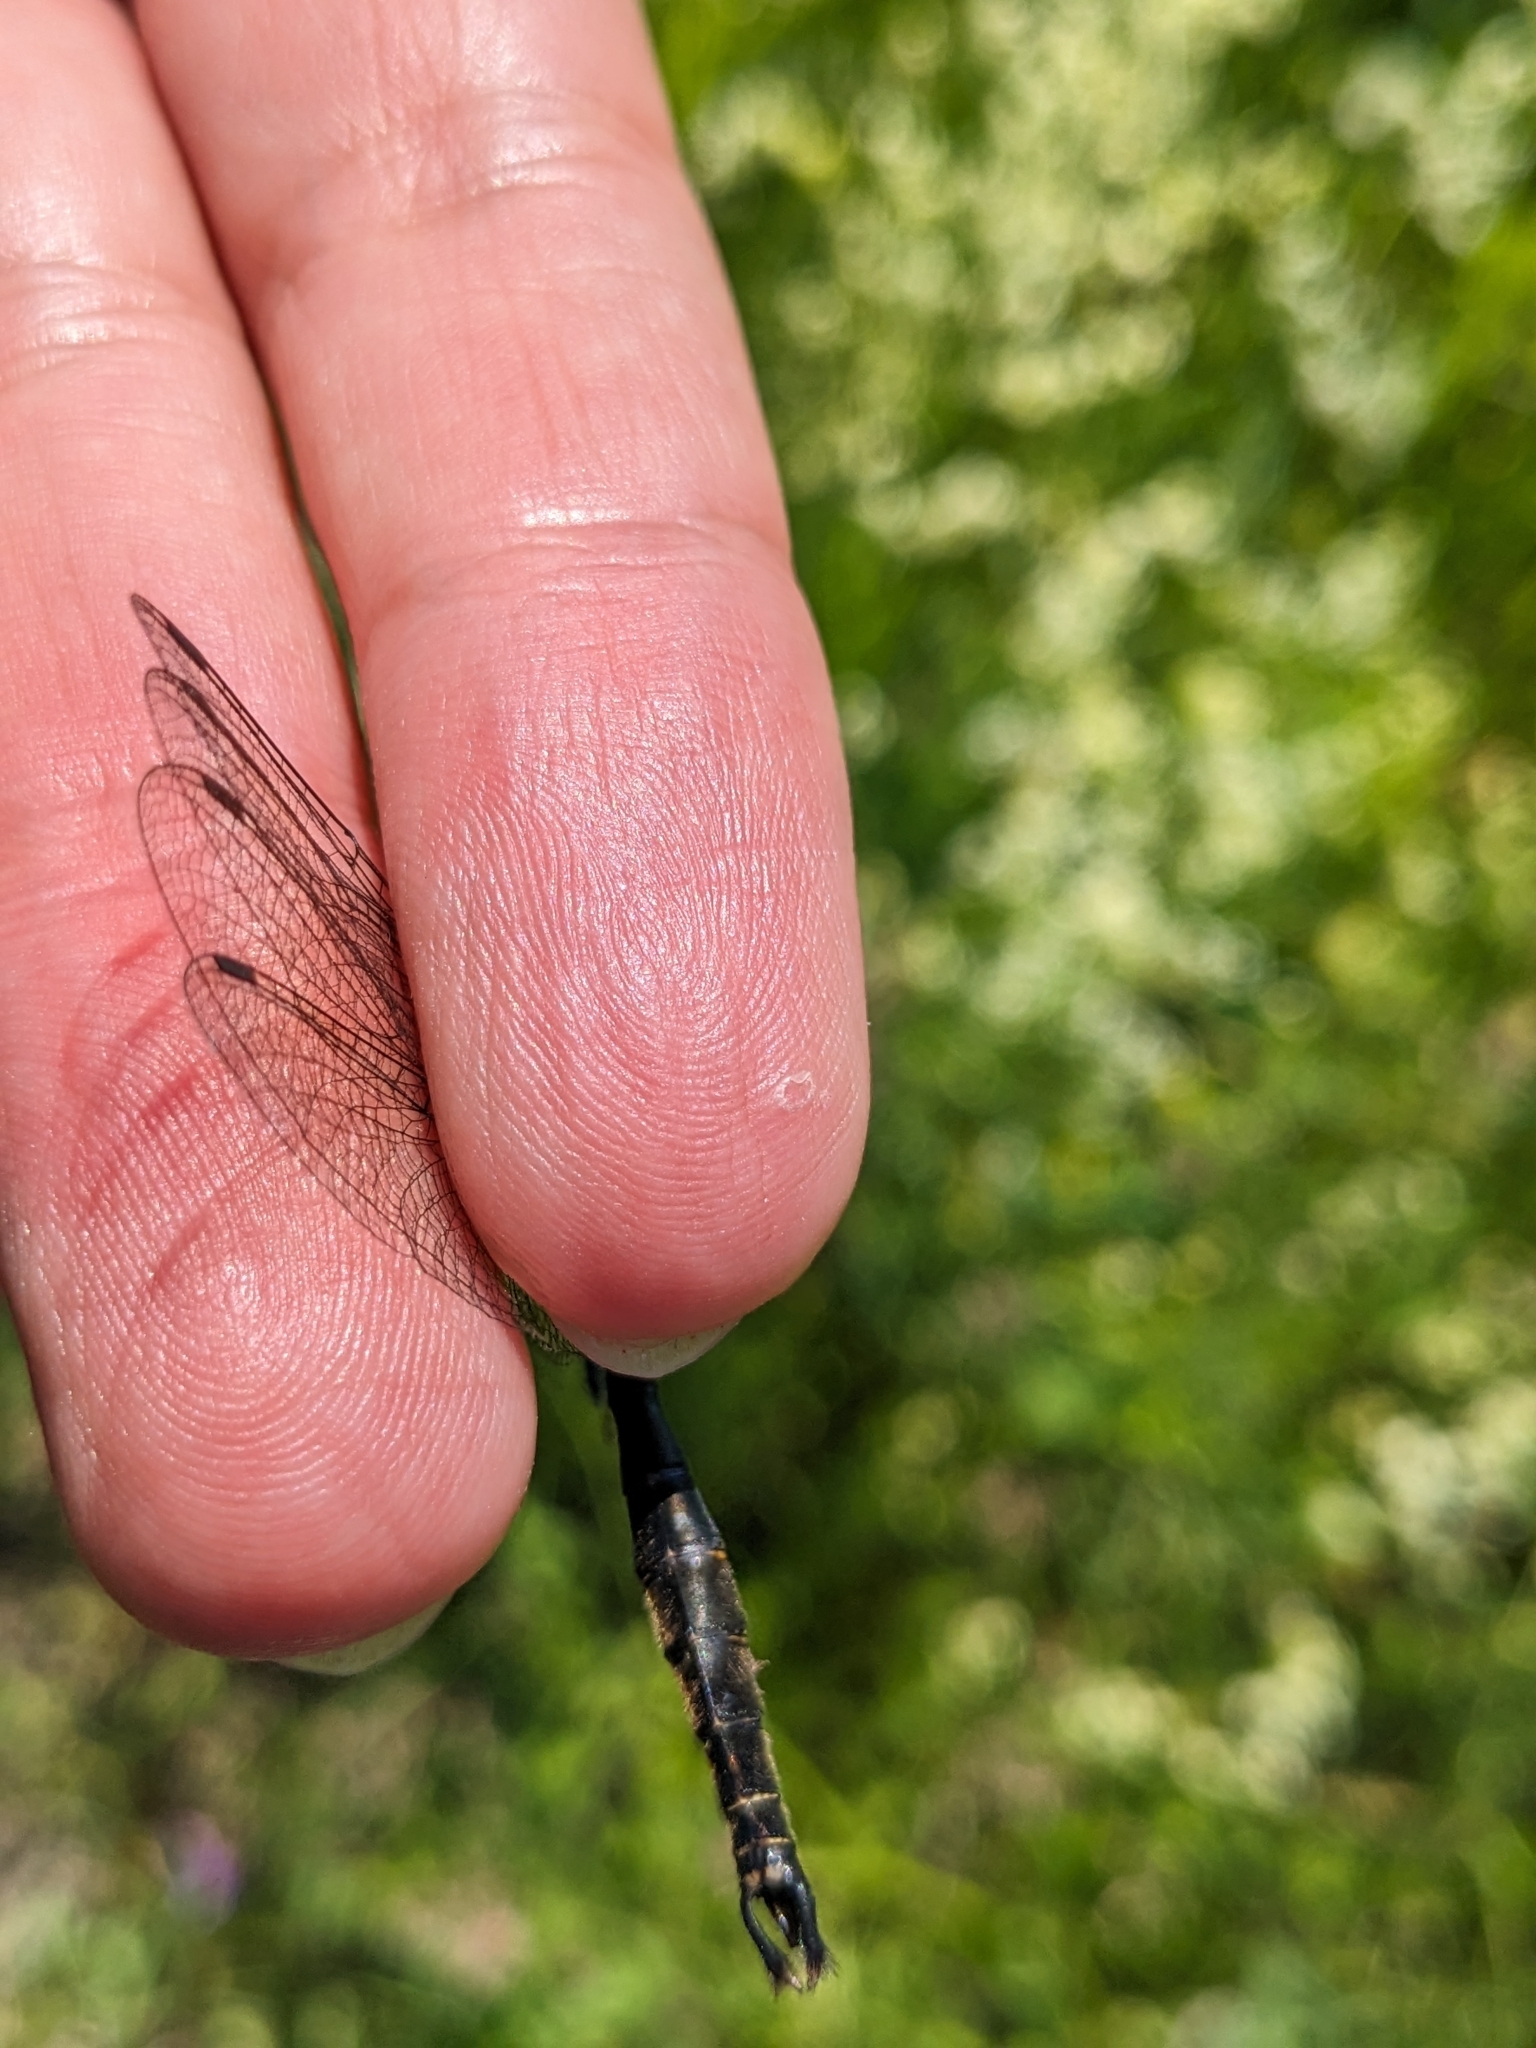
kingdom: Animalia
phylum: Arthropoda
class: Insecta
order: Odonata
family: Corduliidae
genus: Somatochlora
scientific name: Somatochlora walshii
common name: Brush-tipped emerald
